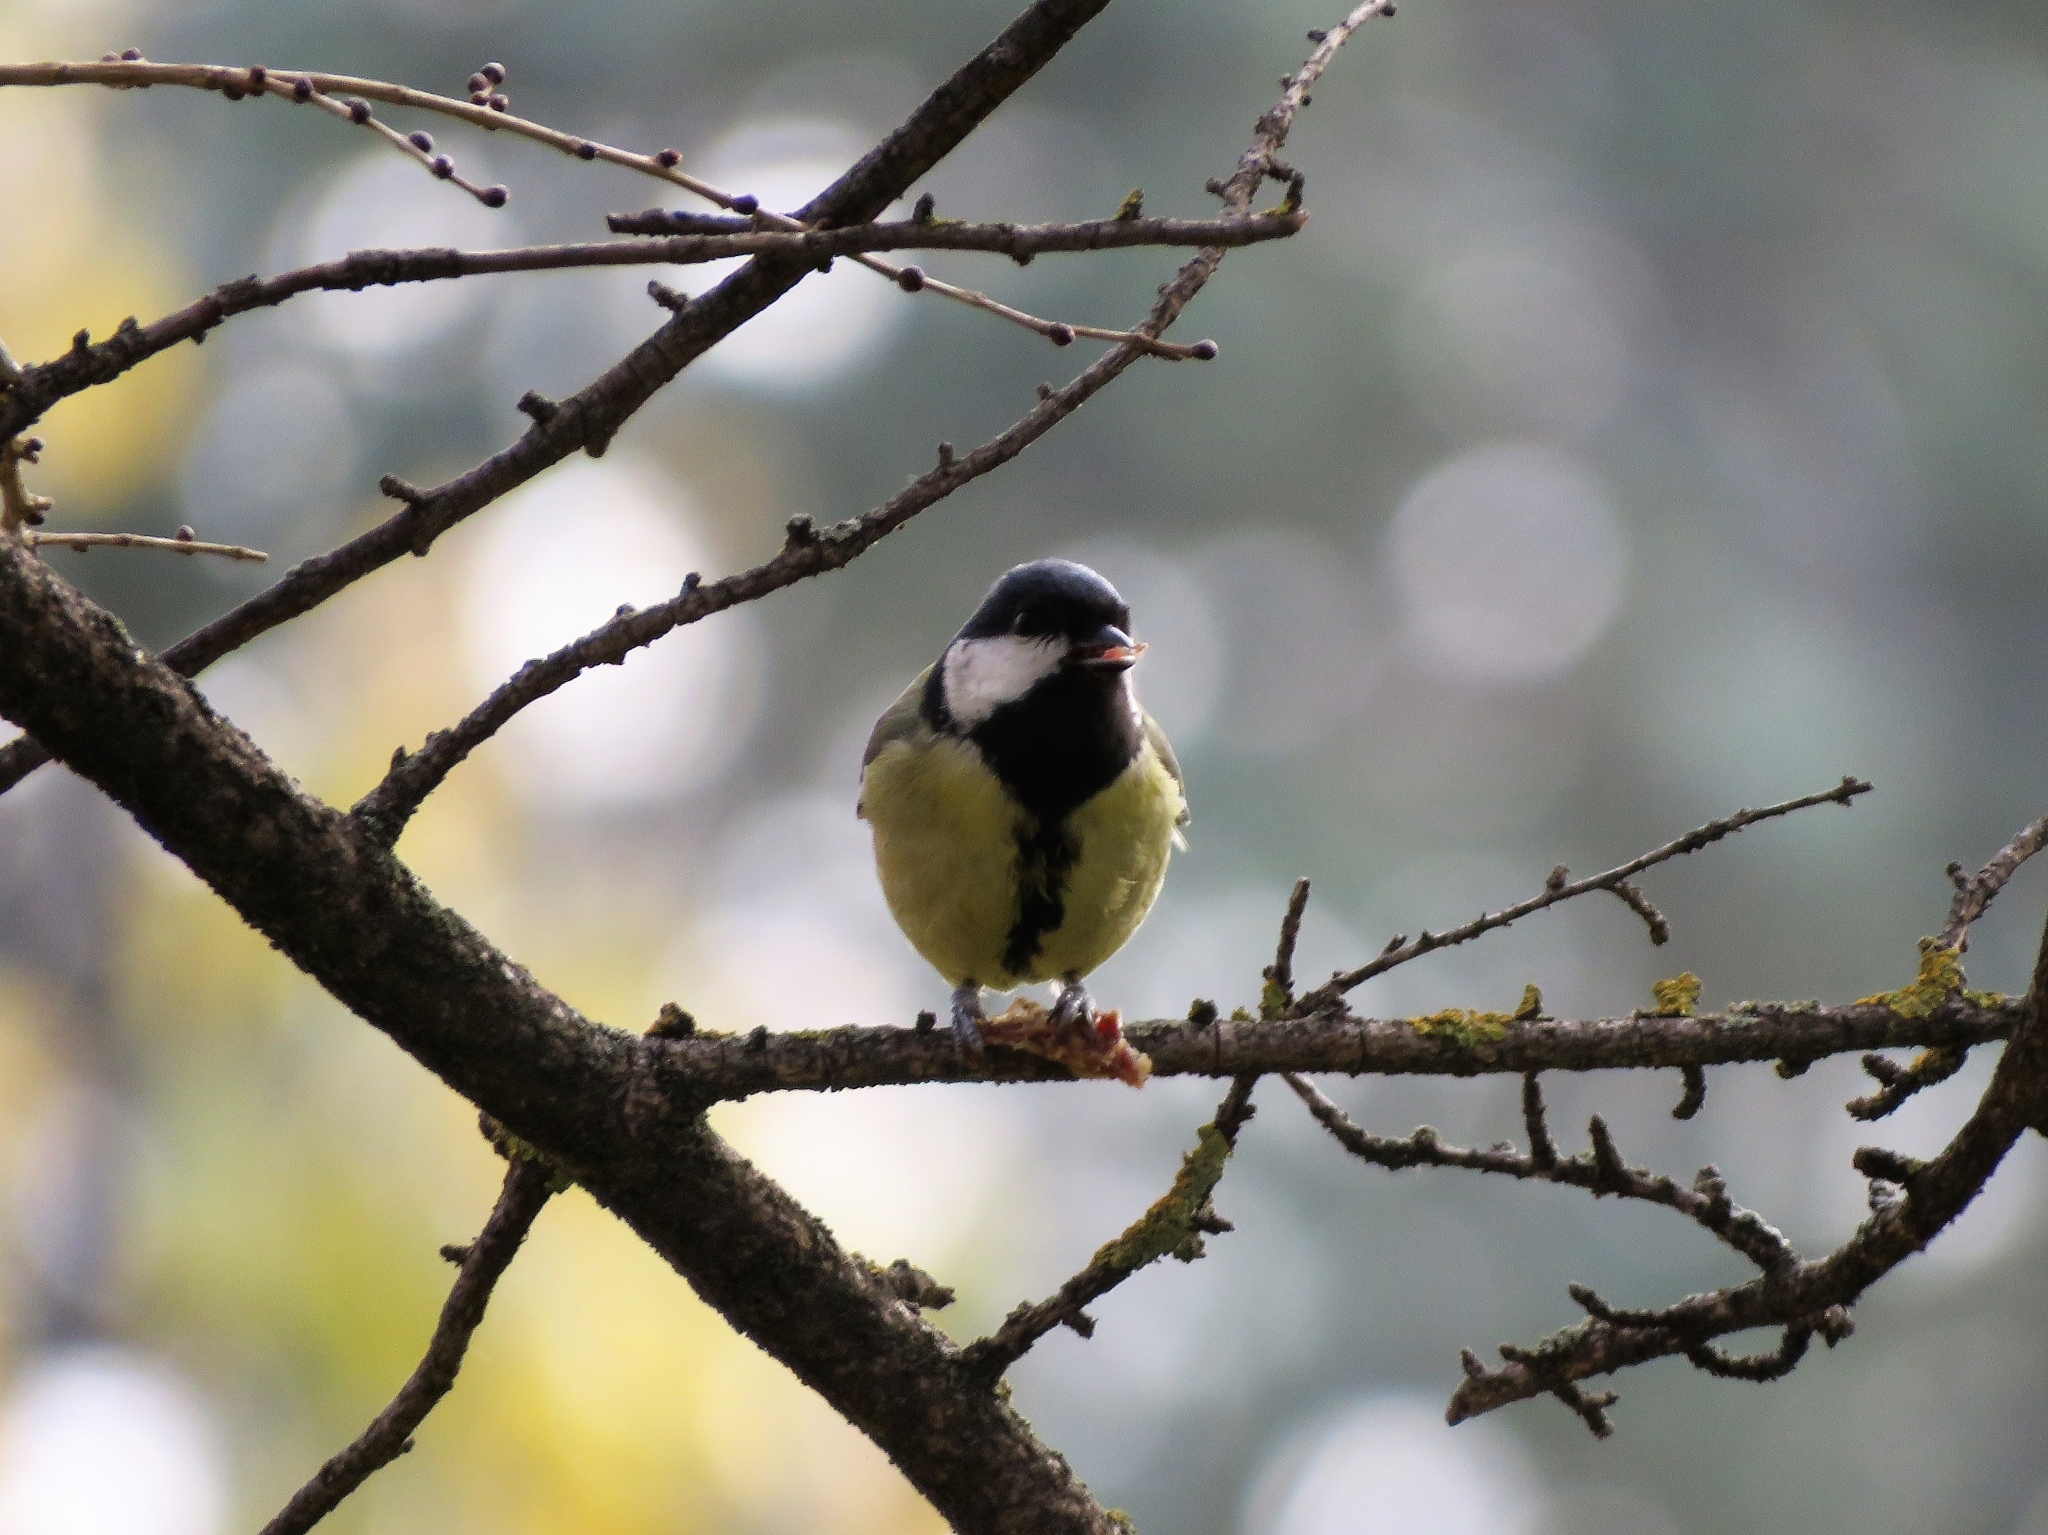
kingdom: Animalia
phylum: Chordata
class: Aves
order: Passeriformes
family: Paridae
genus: Parus
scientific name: Parus major
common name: Great tit
